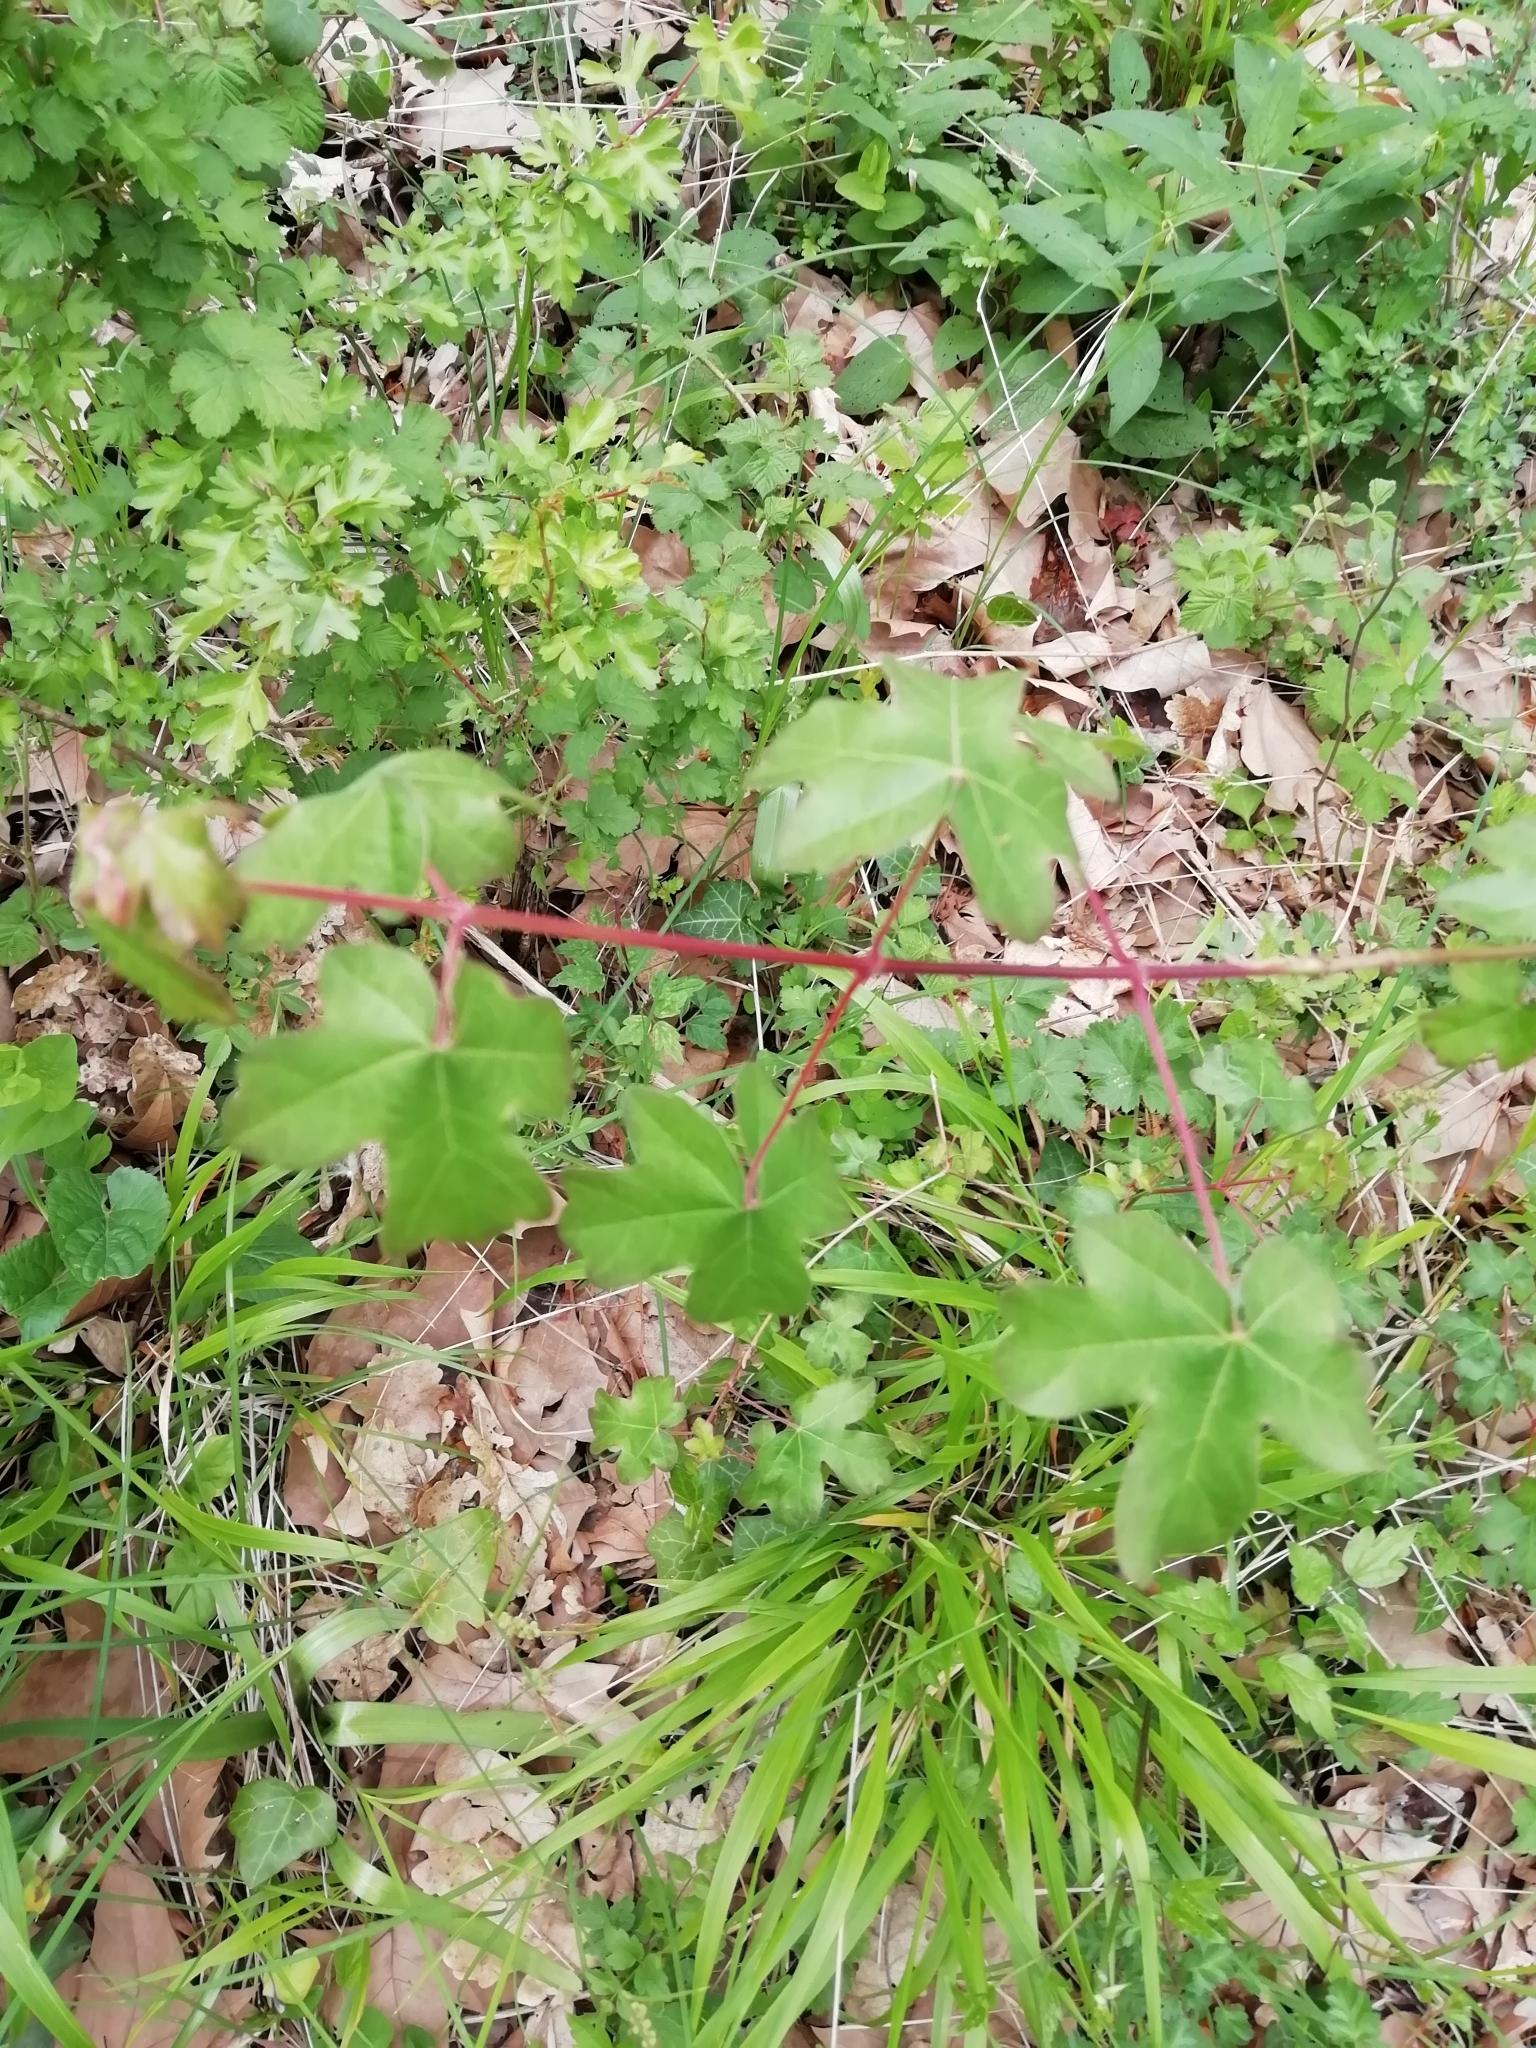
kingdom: Plantae
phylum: Tracheophyta
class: Magnoliopsida
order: Sapindales
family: Sapindaceae
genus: Acer
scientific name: Acer campestre
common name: Field maple
